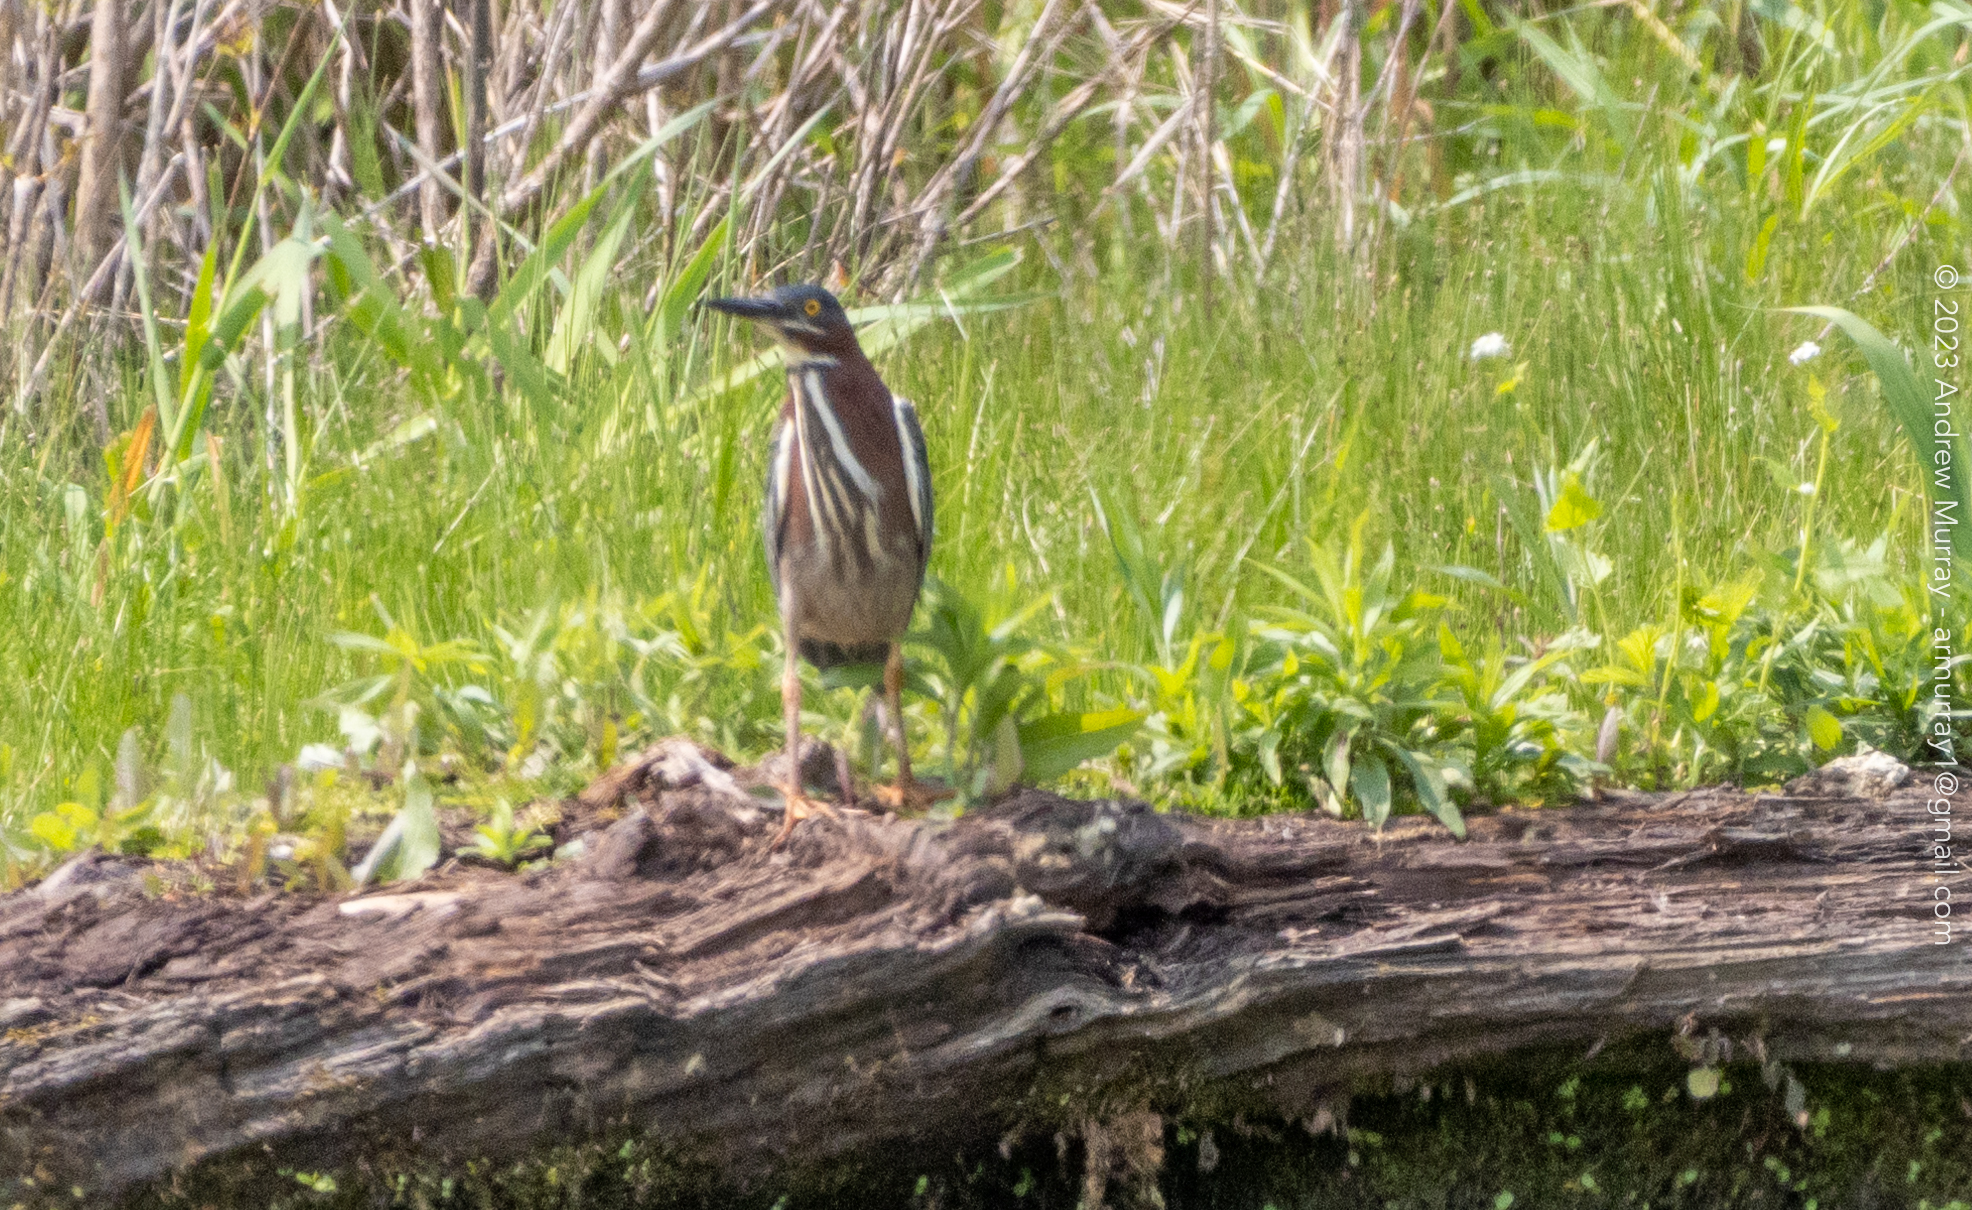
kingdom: Animalia
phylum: Chordata
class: Aves
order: Pelecaniformes
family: Ardeidae
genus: Butorides
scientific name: Butorides virescens
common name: Green heron
